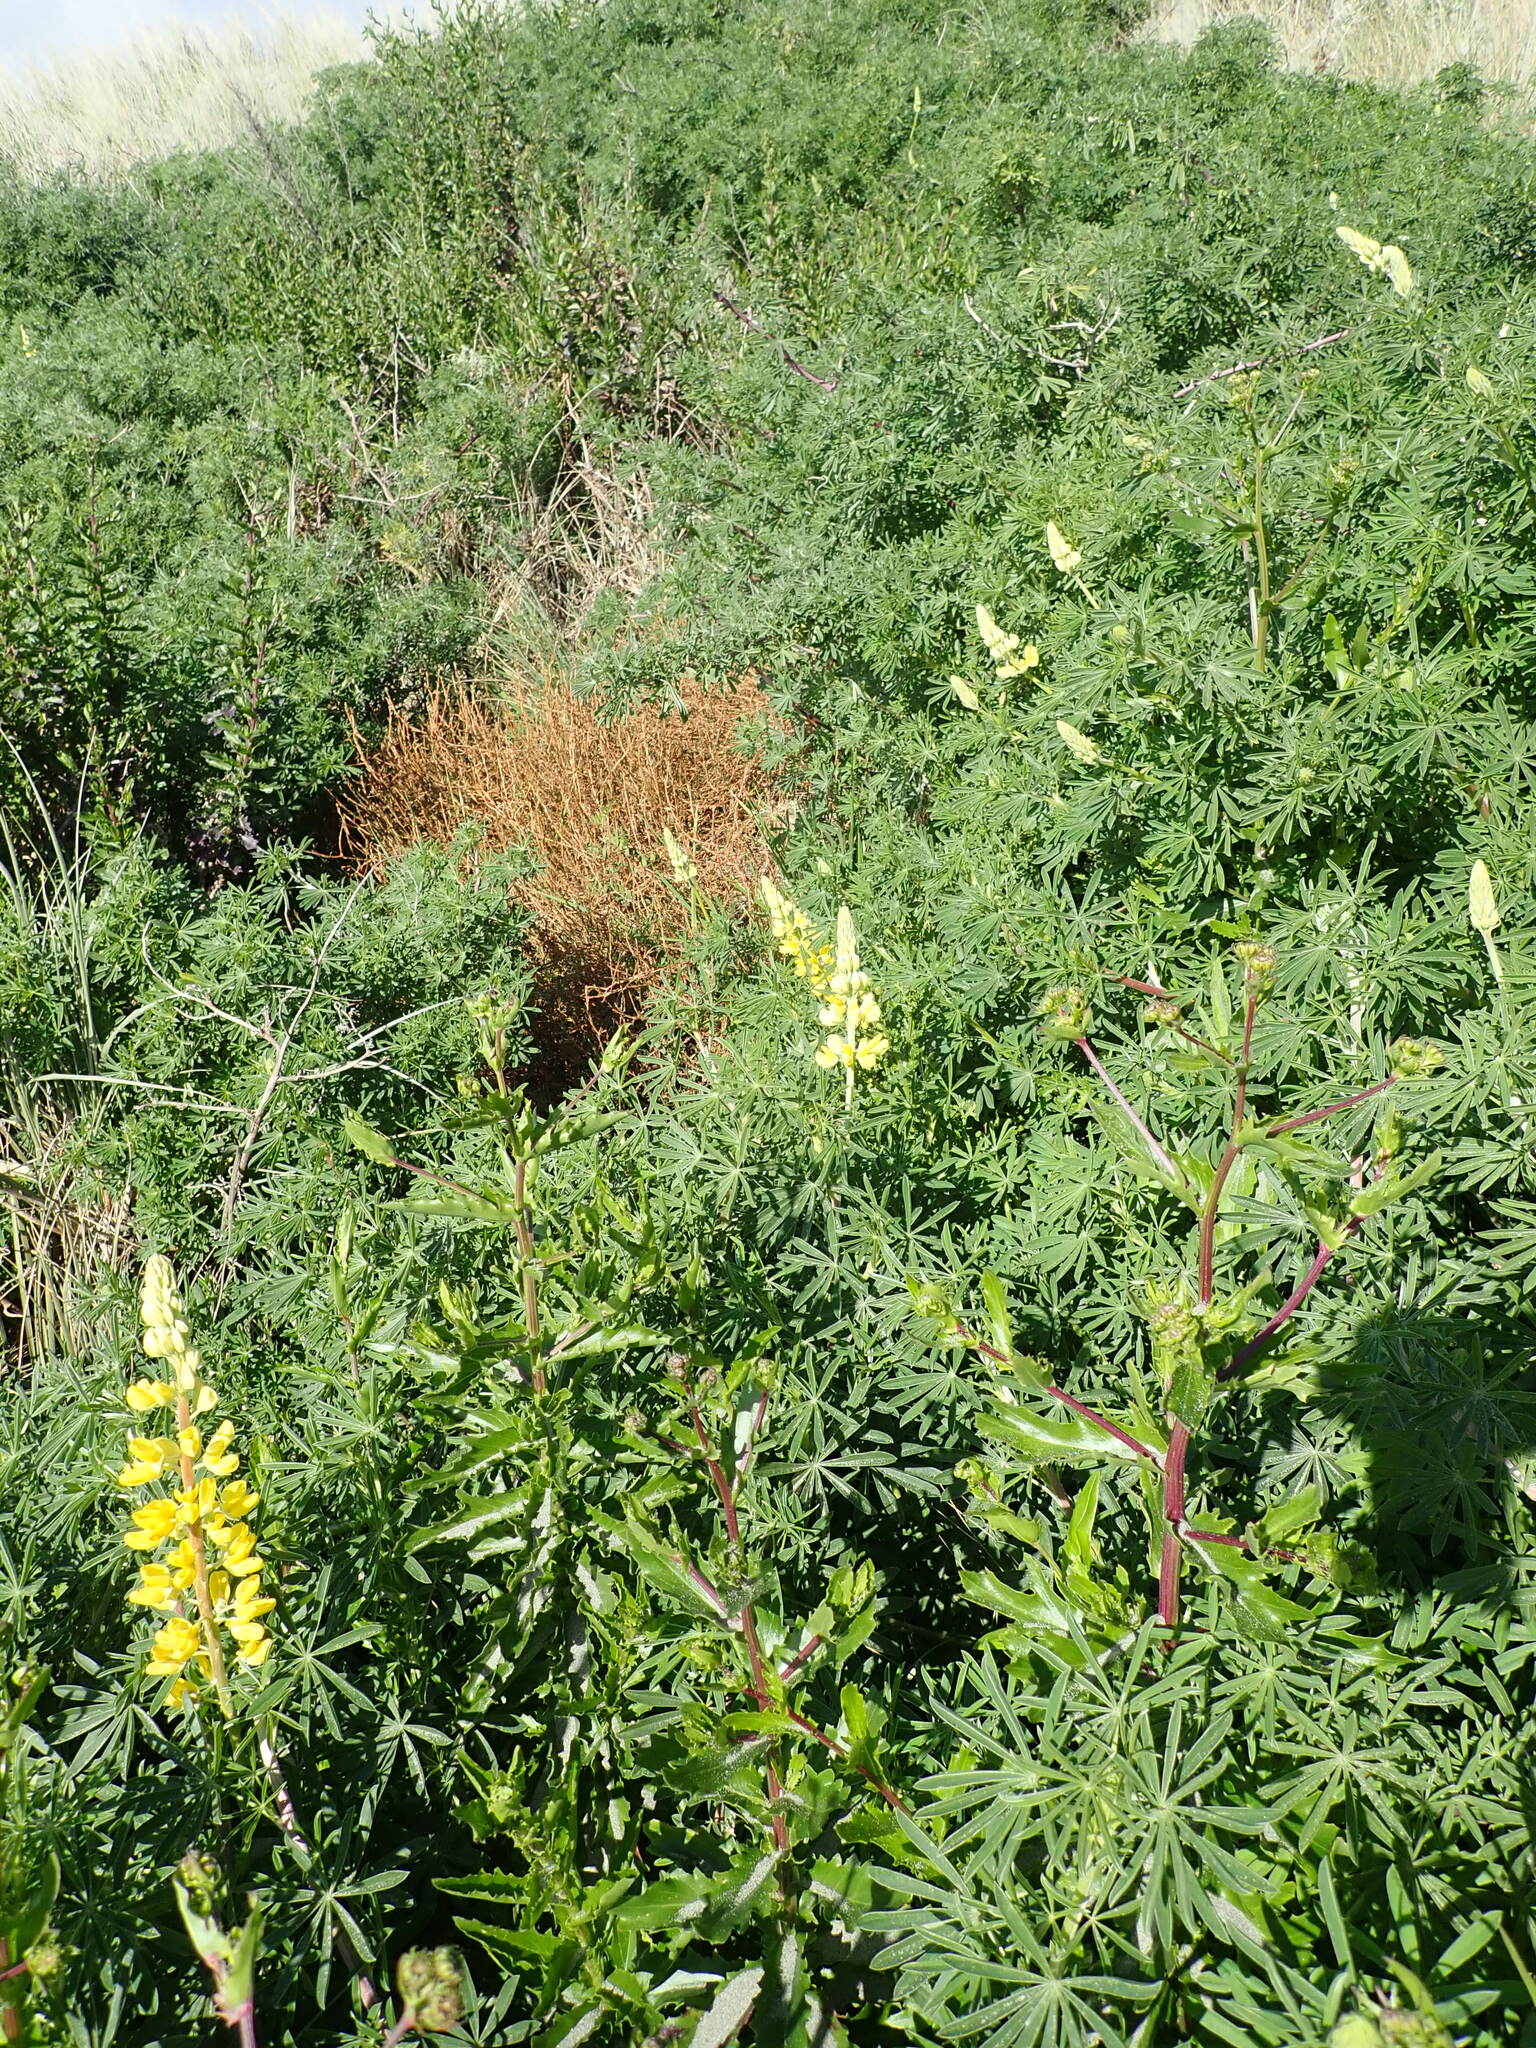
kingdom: Plantae
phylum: Tracheophyta
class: Magnoliopsida
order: Fabales
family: Fabaceae
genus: Lupinus
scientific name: Lupinus arboreus
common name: Yellow bush lupine
